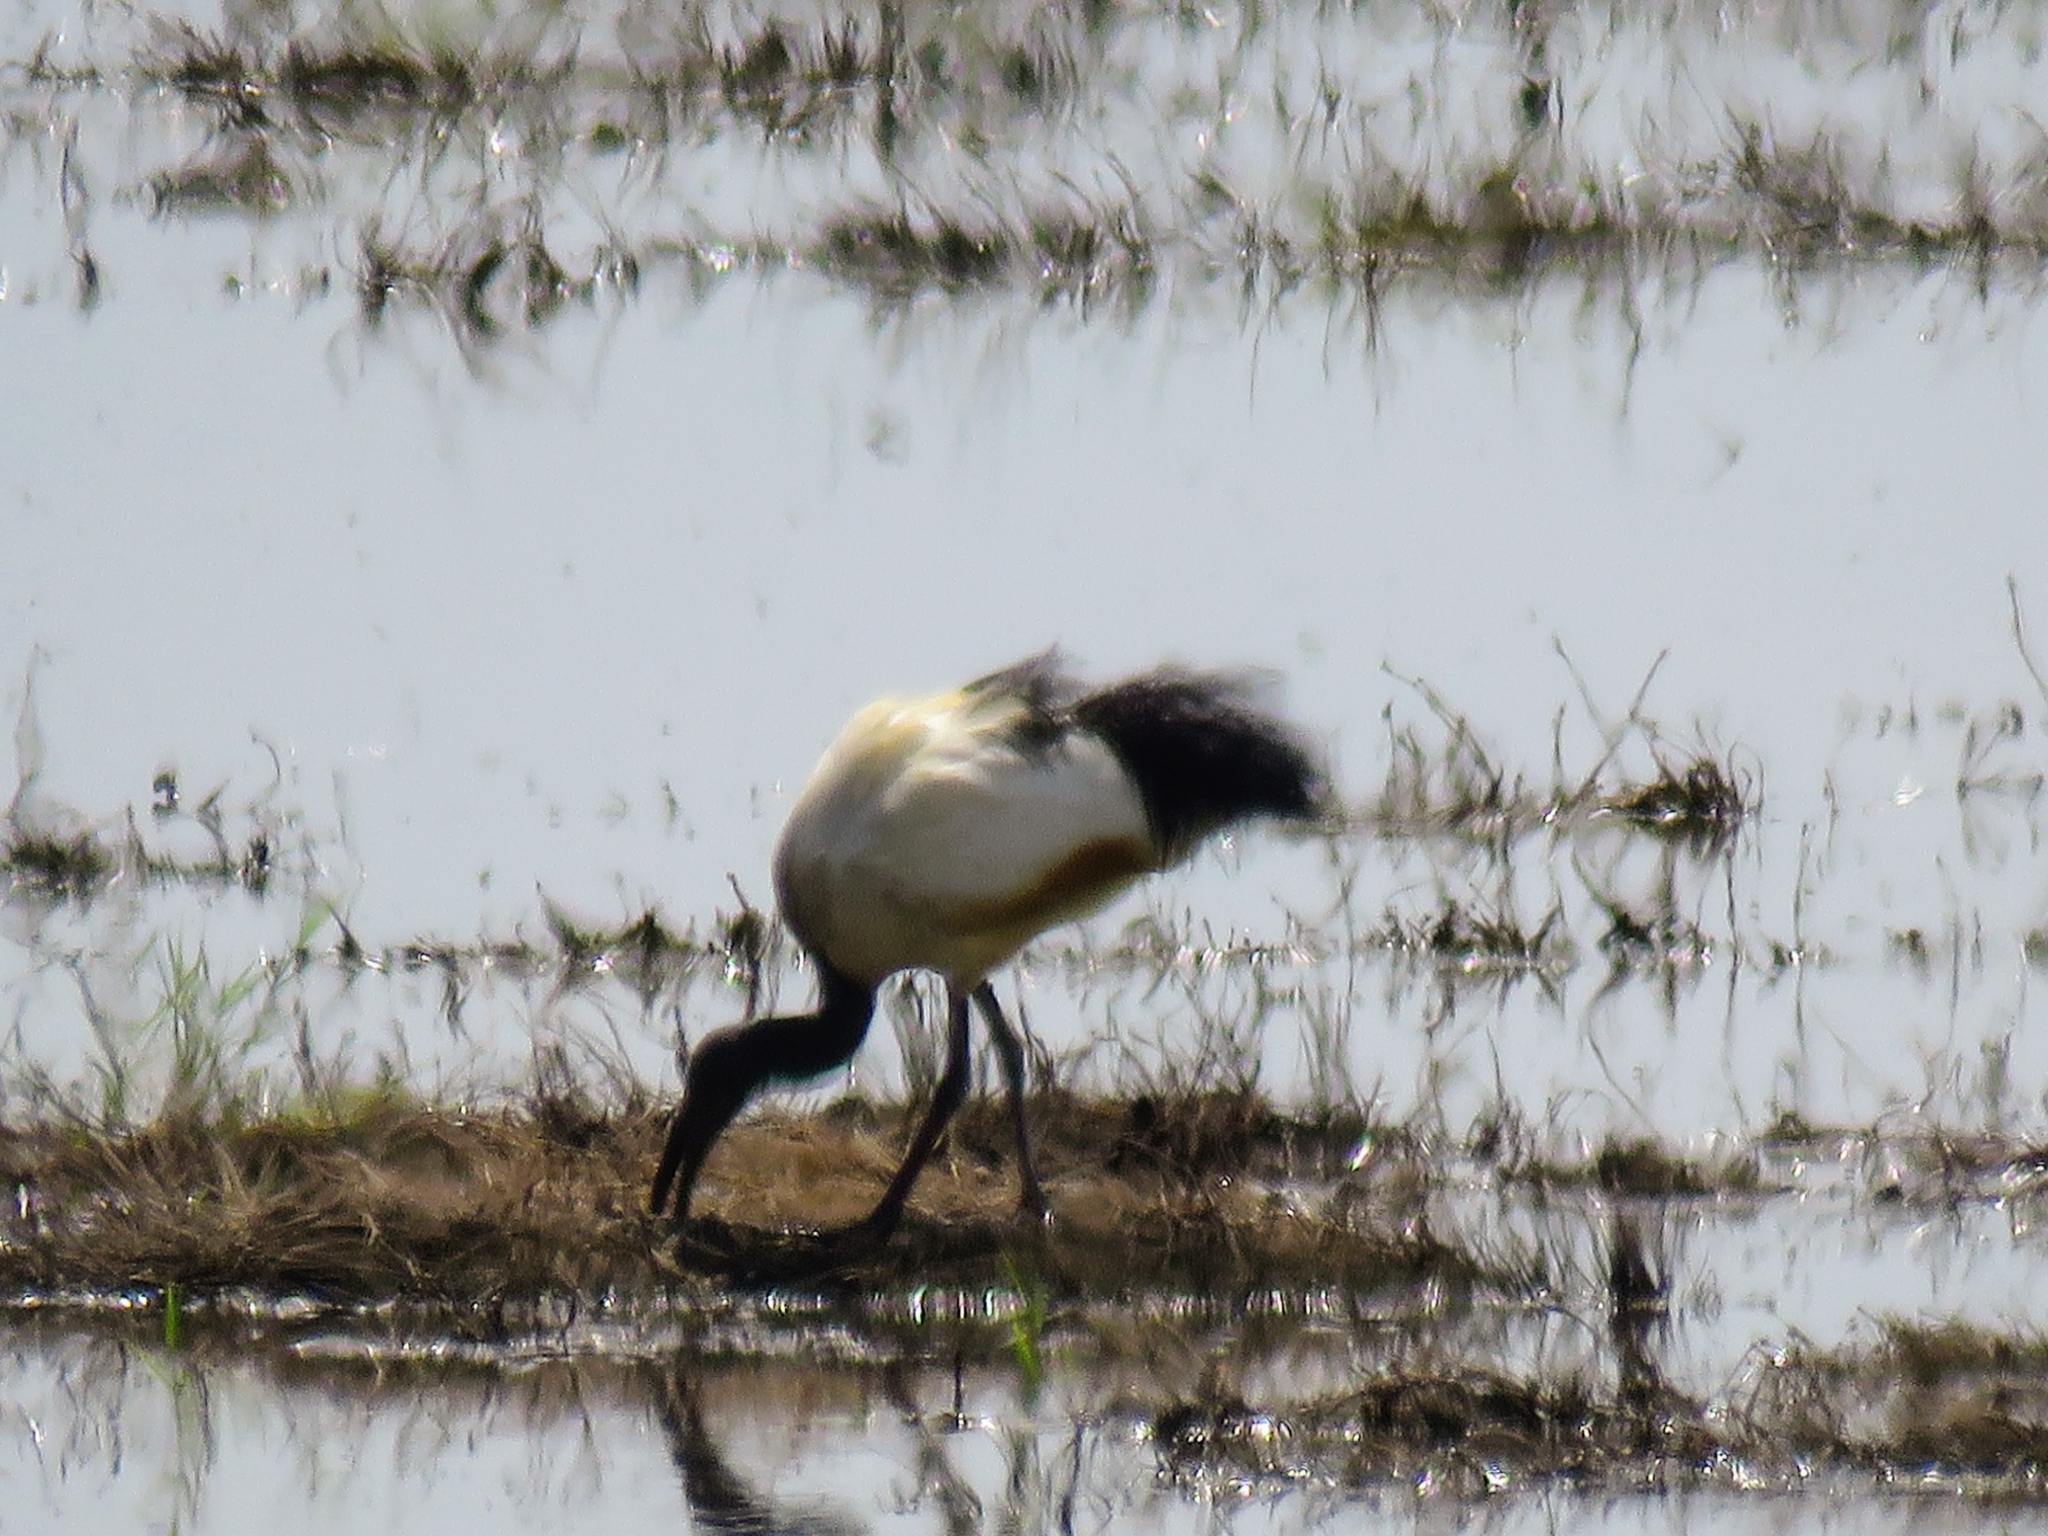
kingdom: Animalia
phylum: Chordata
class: Aves
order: Pelecaniformes
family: Threskiornithidae
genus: Threskiornis
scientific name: Threskiornis aethiopicus
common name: Sacred ibis
